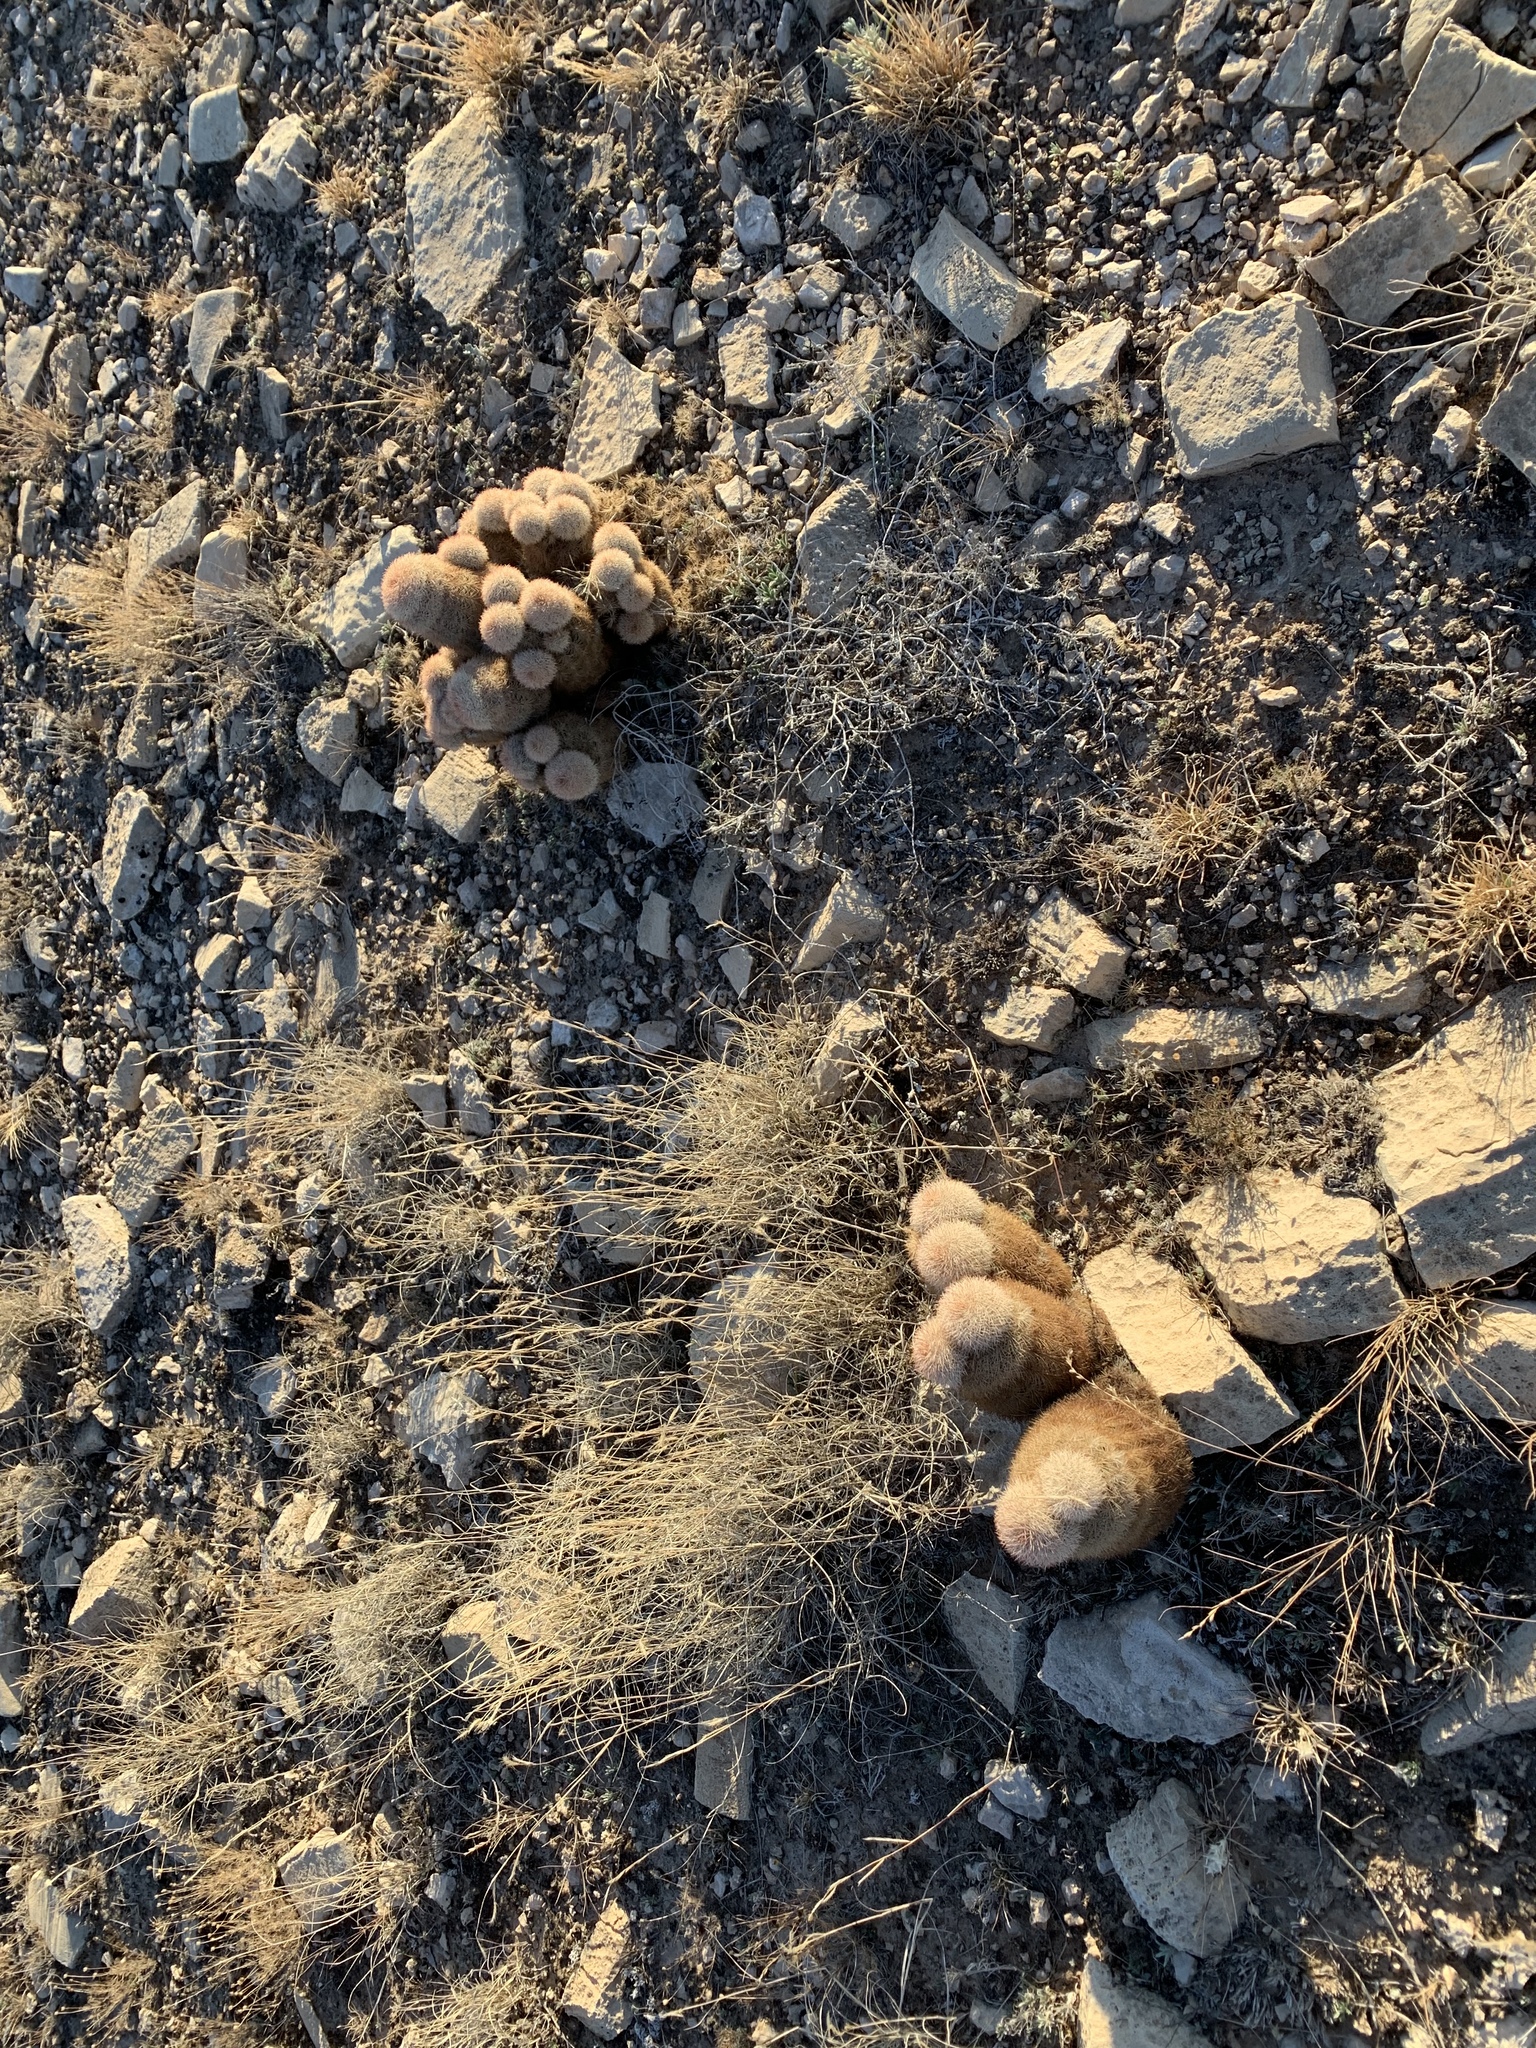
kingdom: Plantae
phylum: Tracheophyta
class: Magnoliopsida
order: Caryophyllales
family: Cactaceae
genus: Echinocereus
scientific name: Echinocereus dasyacanthus
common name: Spiny hedgehog cactus
